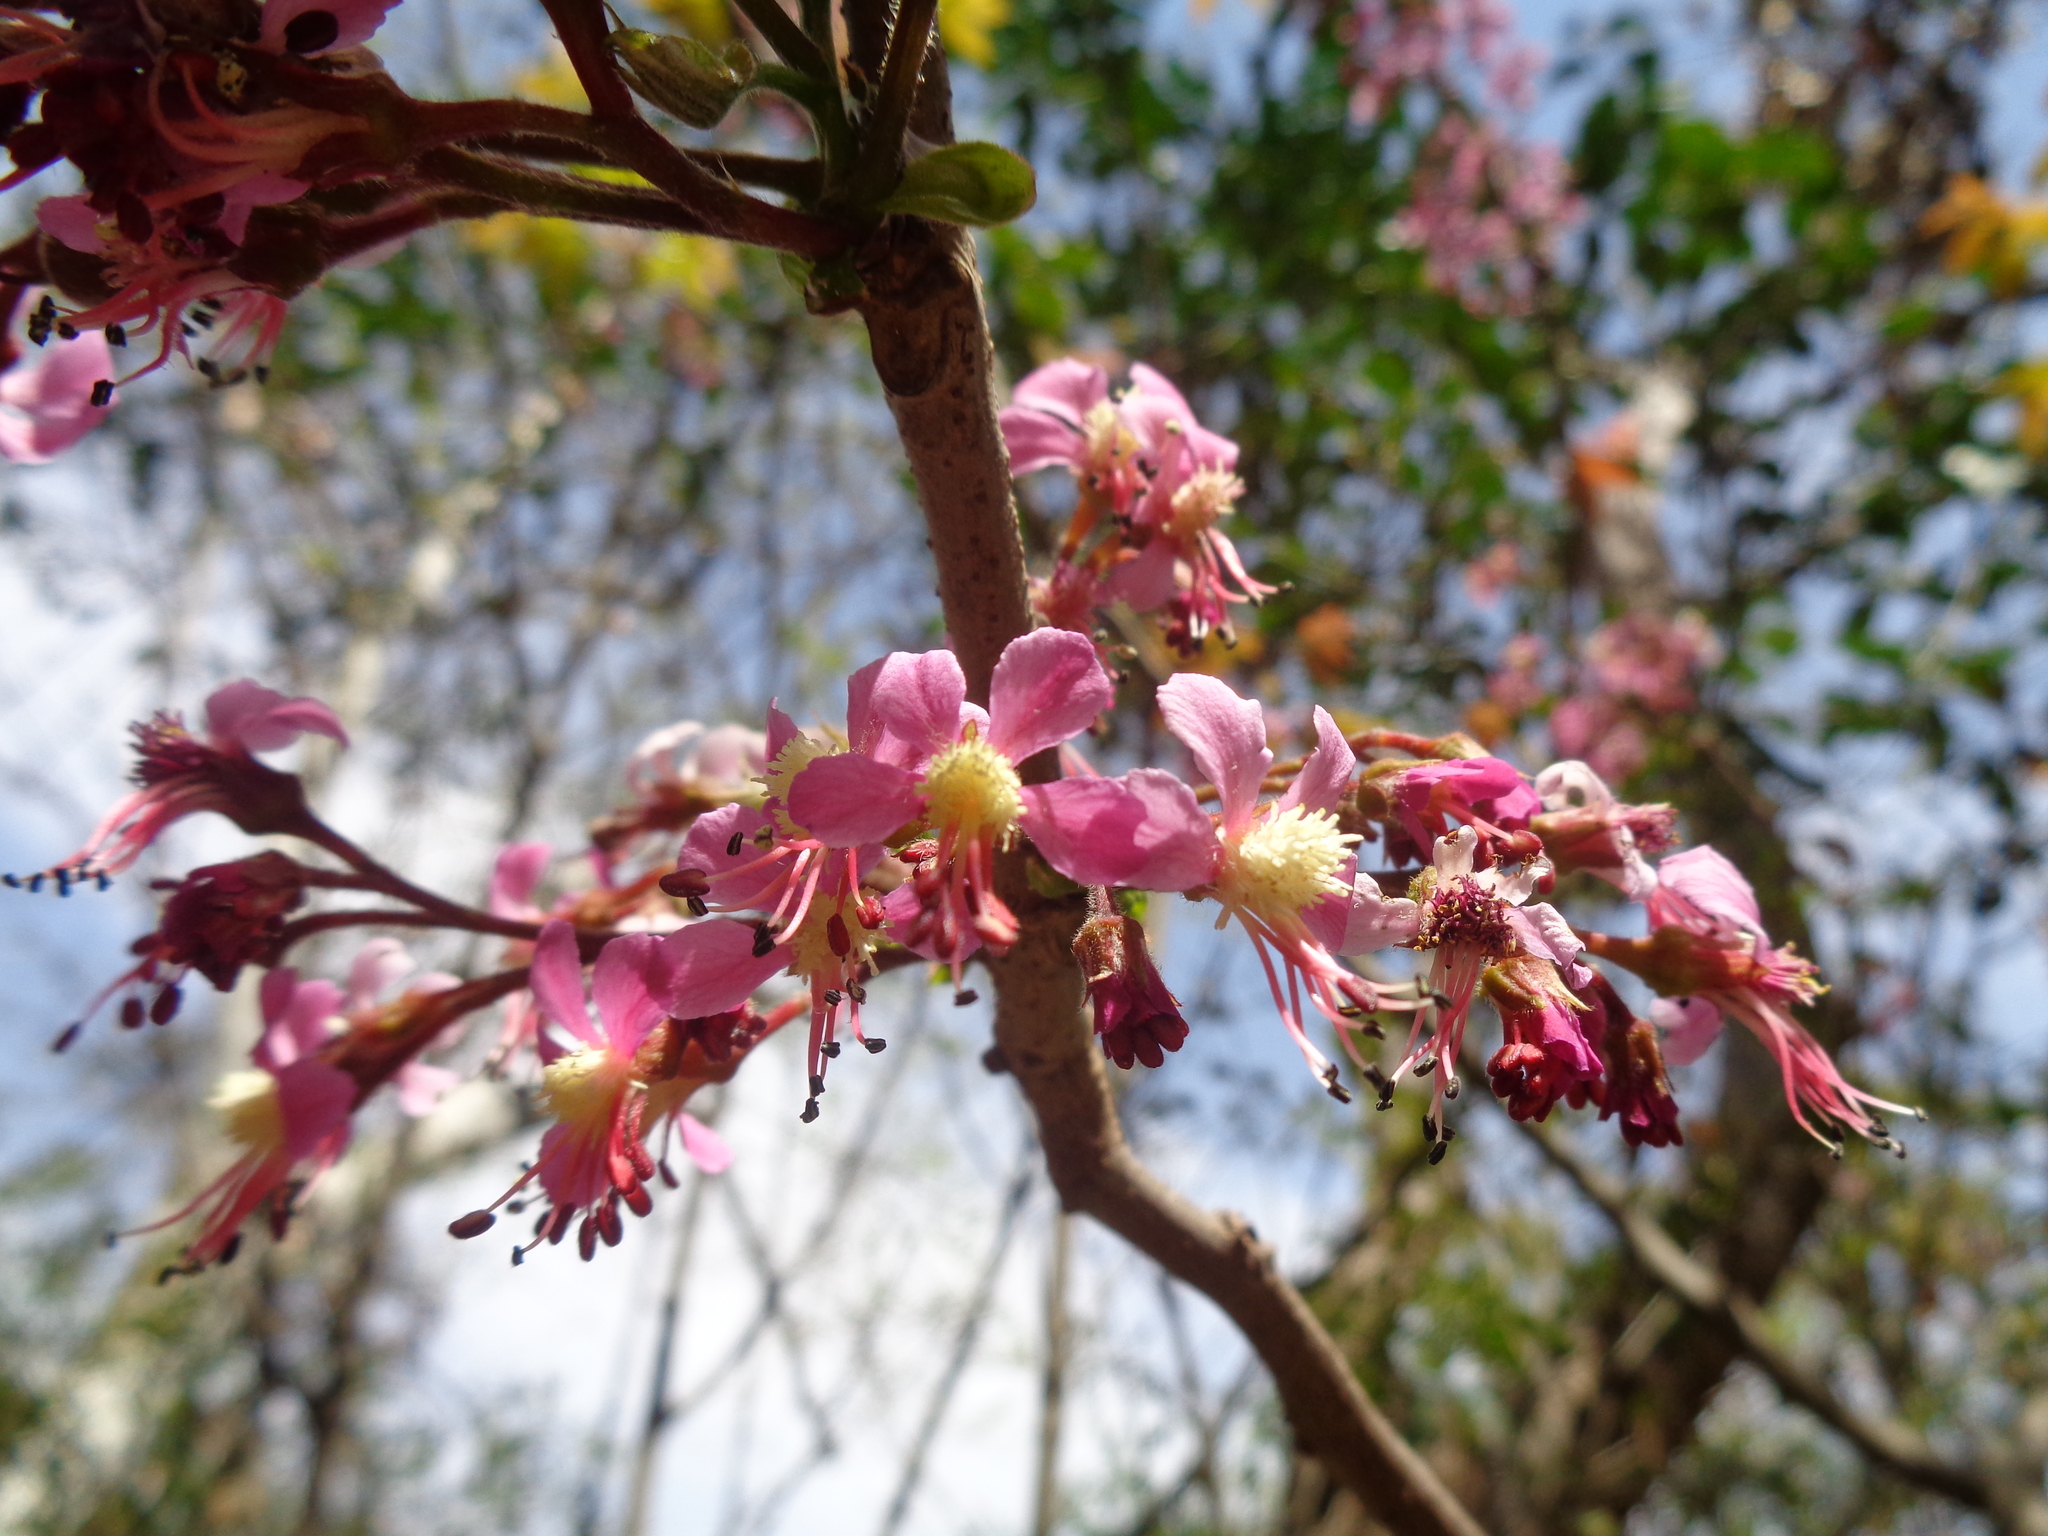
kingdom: Plantae
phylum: Tracheophyta
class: Magnoliopsida
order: Sapindales
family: Sapindaceae
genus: Ungnadia
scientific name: Ungnadia speciosa
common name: Texas-buckeye
